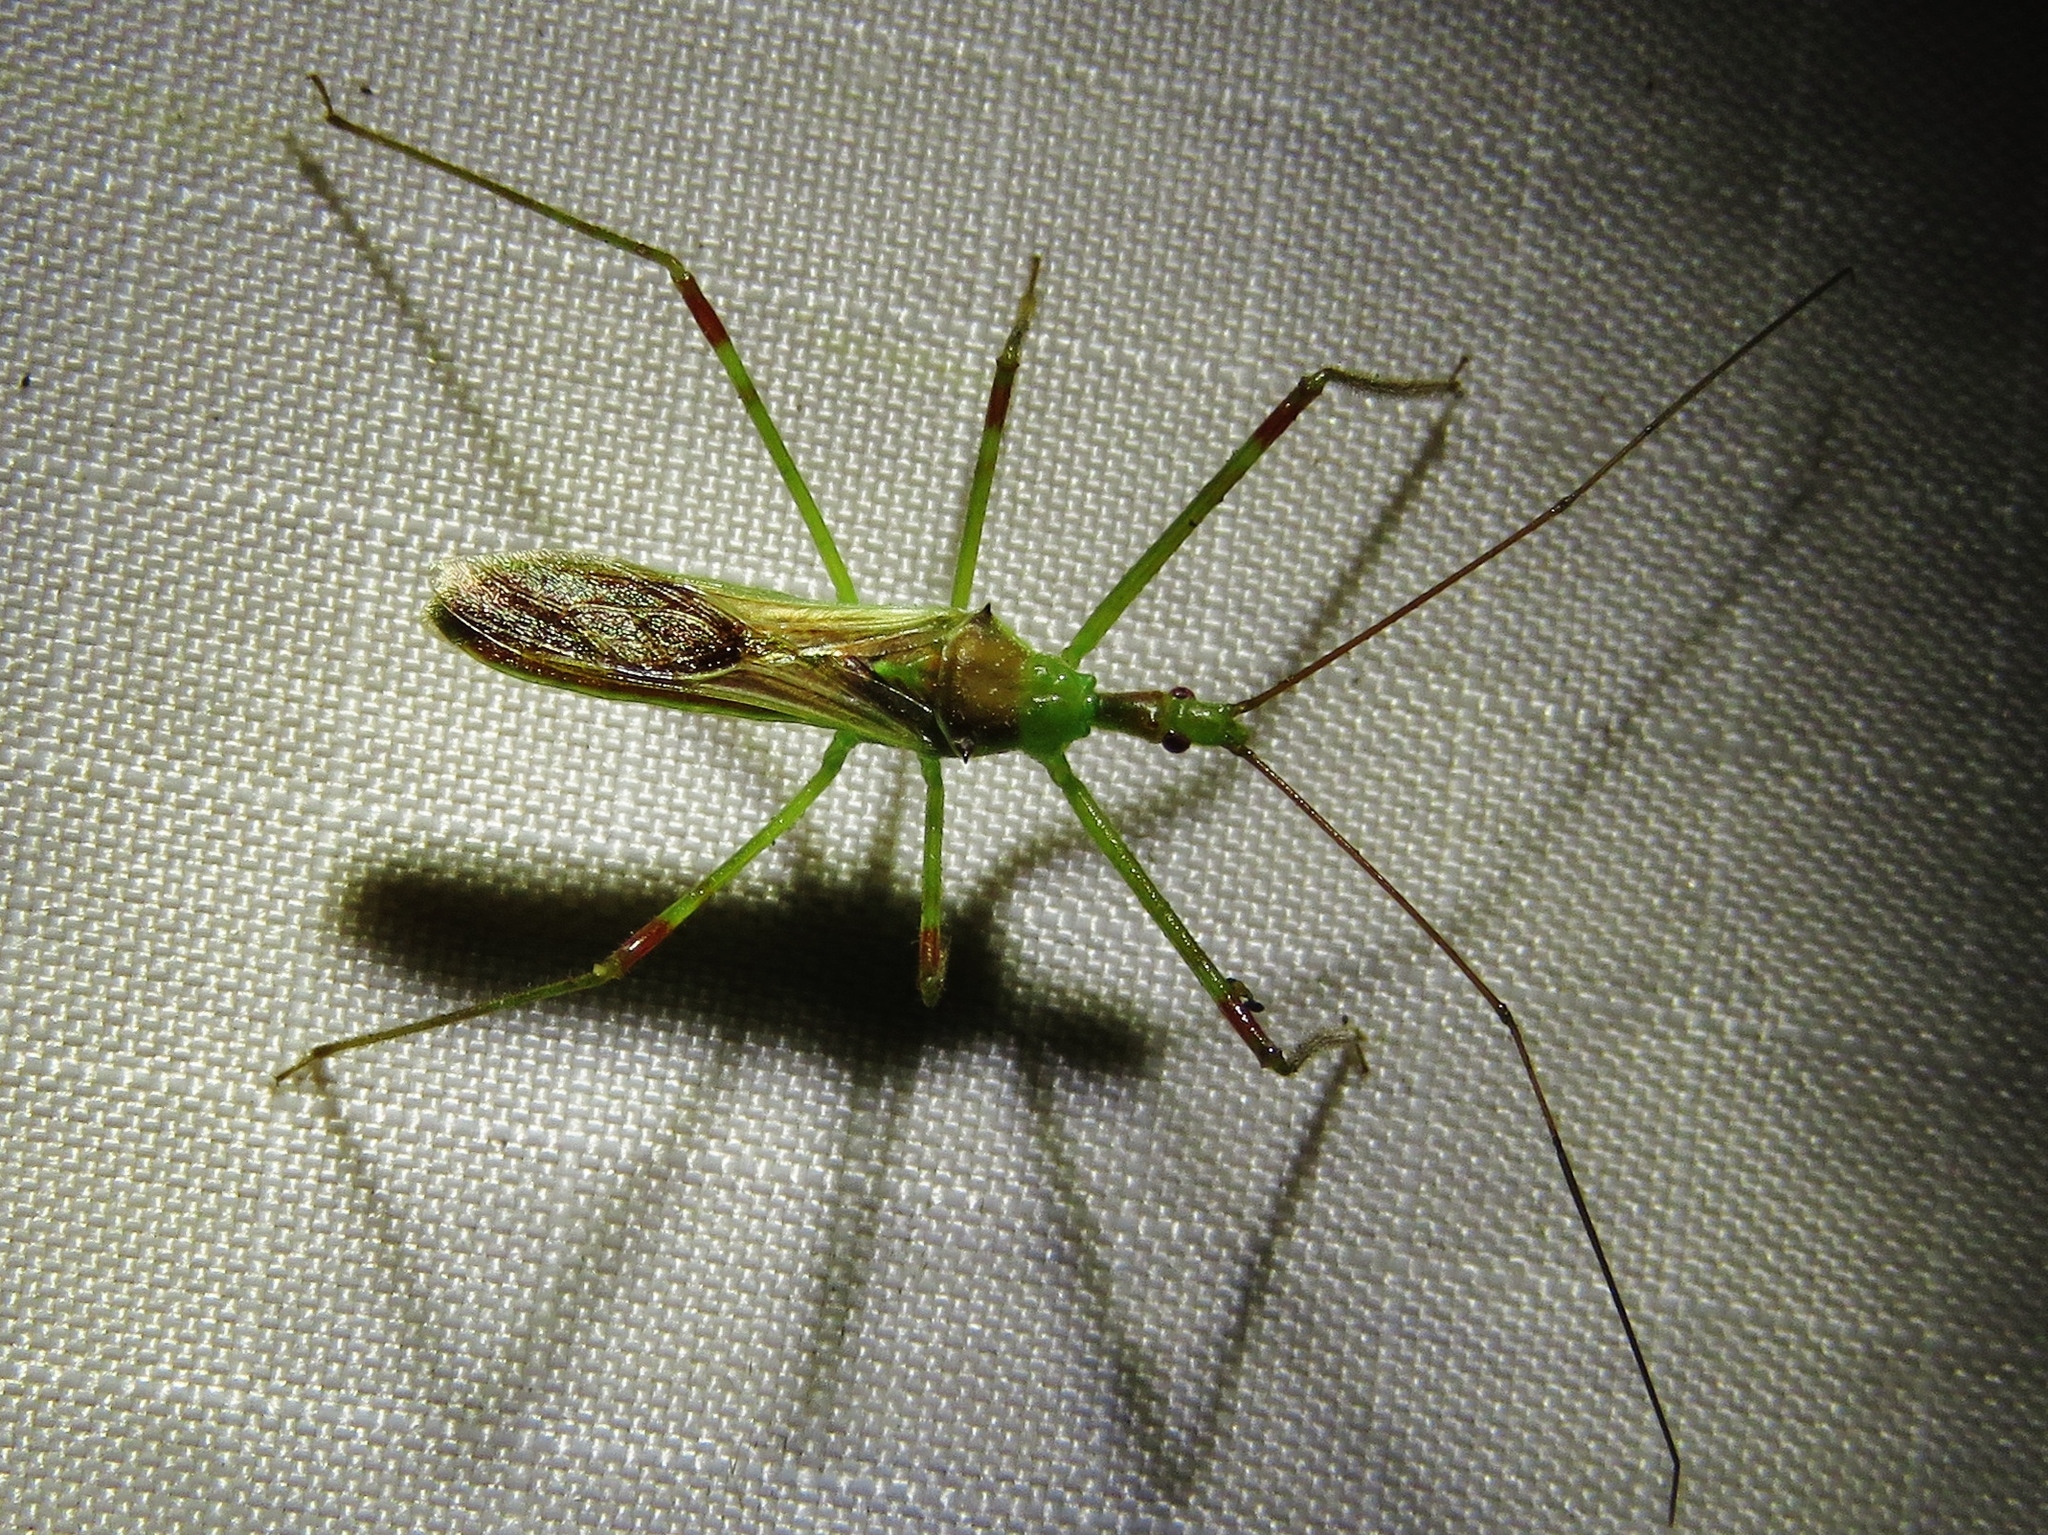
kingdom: Animalia
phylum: Arthropoda
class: Insecta
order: Hemiptera
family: Reduviidae
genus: Zelus
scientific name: Zelus luridus
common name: Pale green assassin bug
